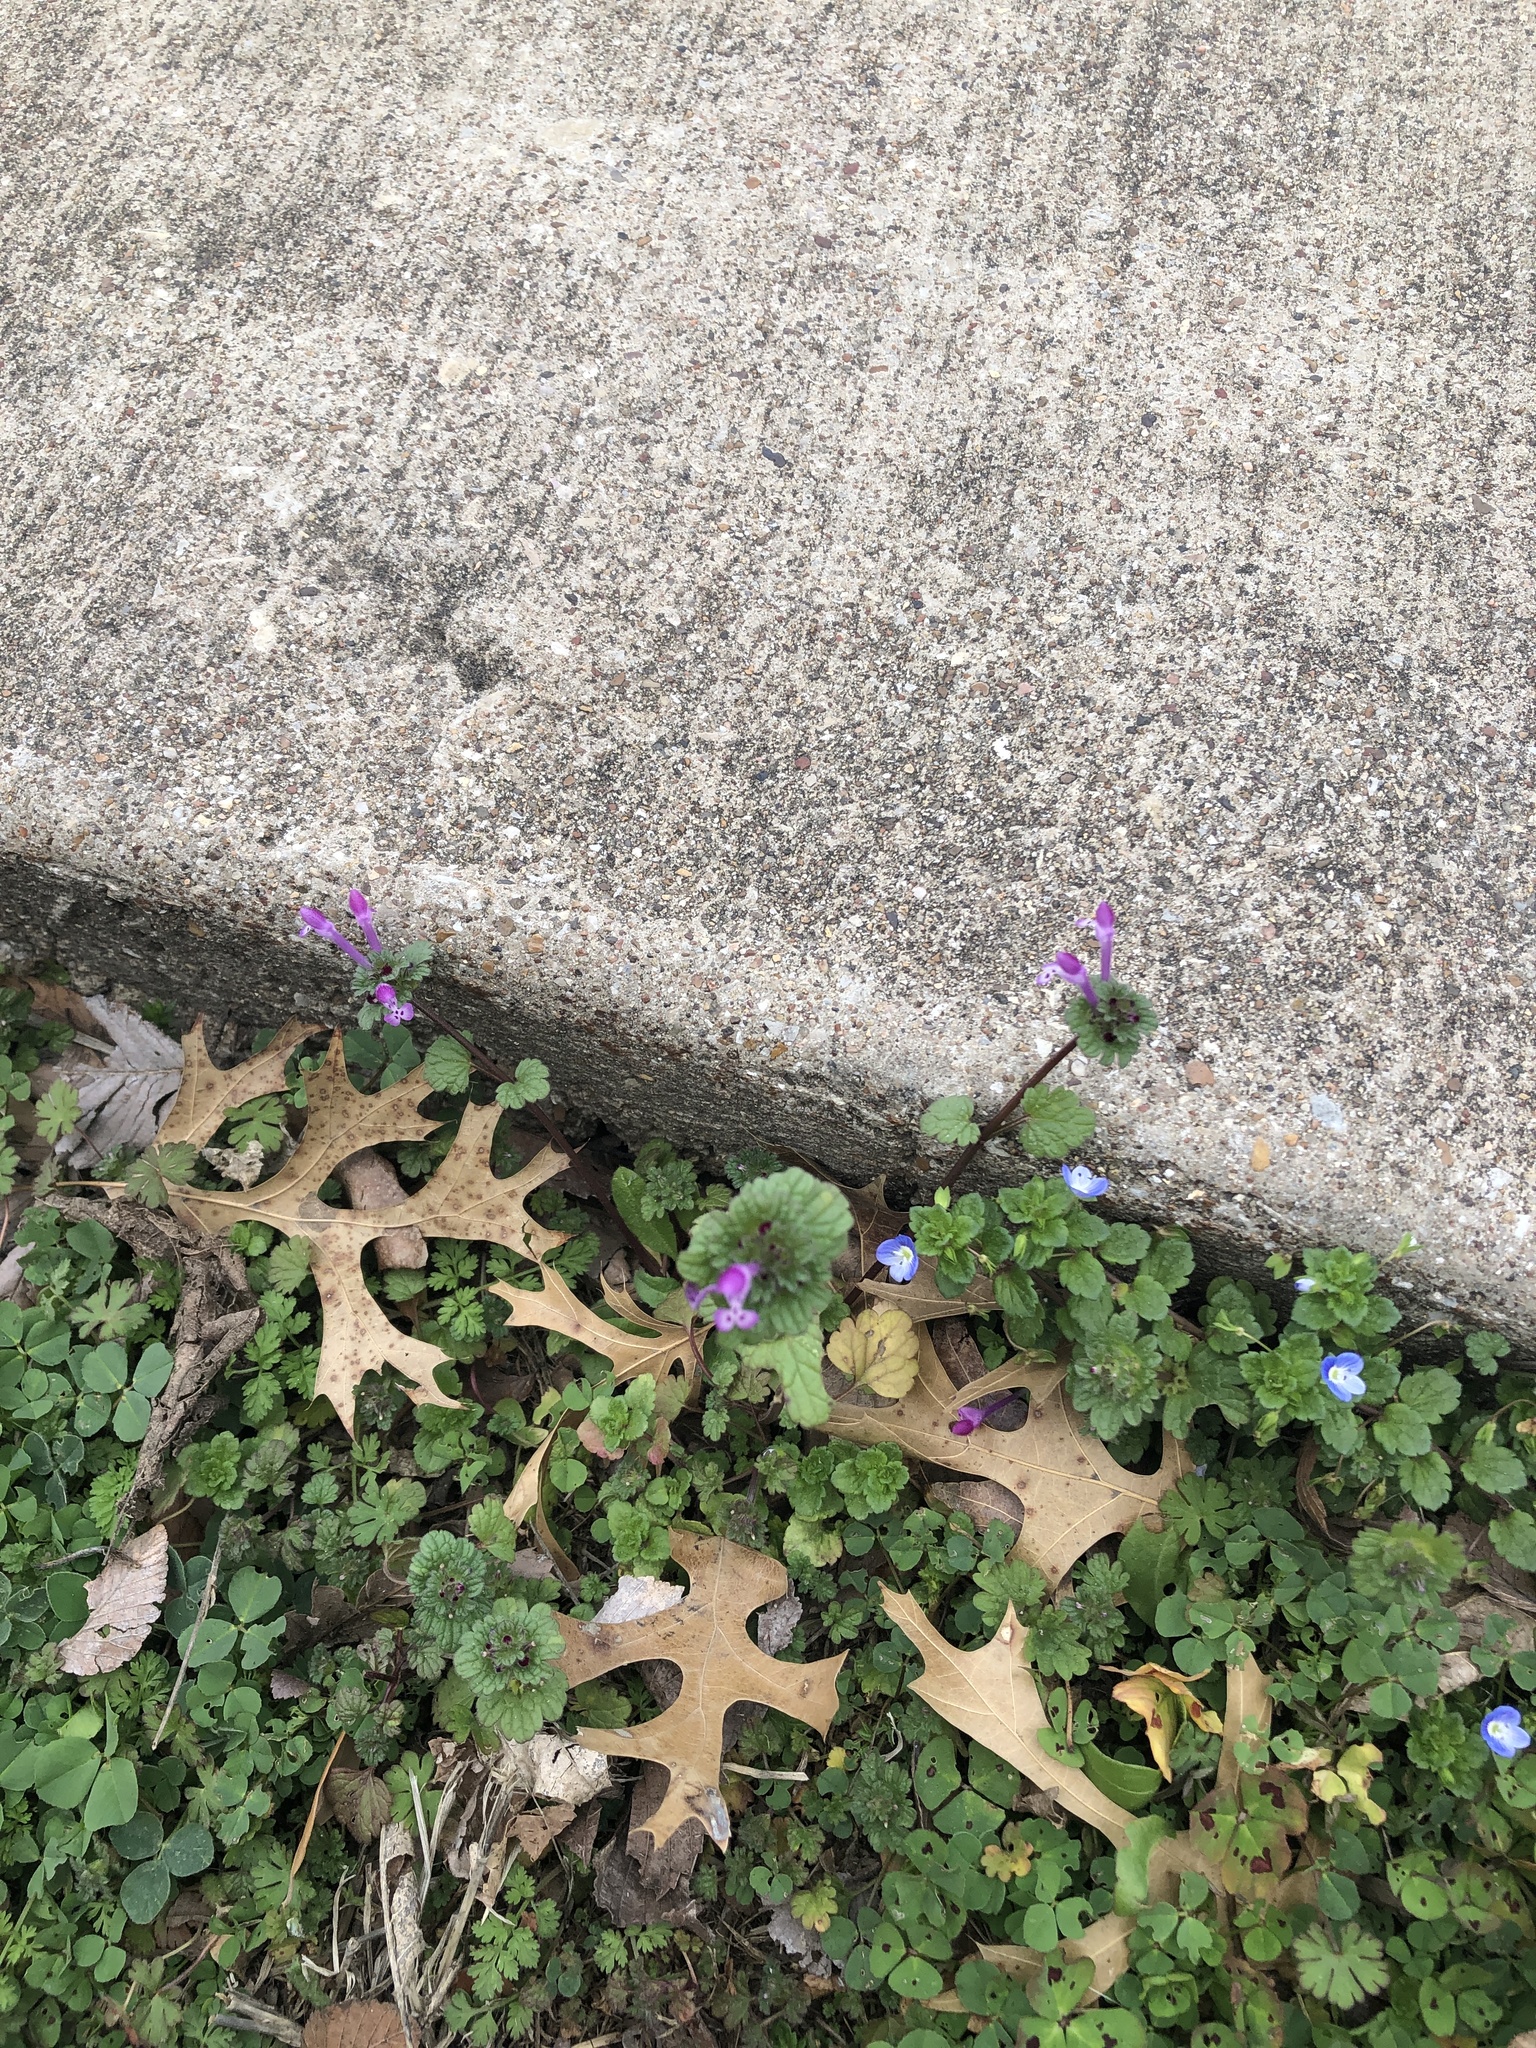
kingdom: Plantae
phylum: Tracheophyta
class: Magnoliopsida
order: Lamiales
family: Lamiaceae
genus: Lamium
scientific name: Lamium amplexicaule
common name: Henbit dead-nettle
